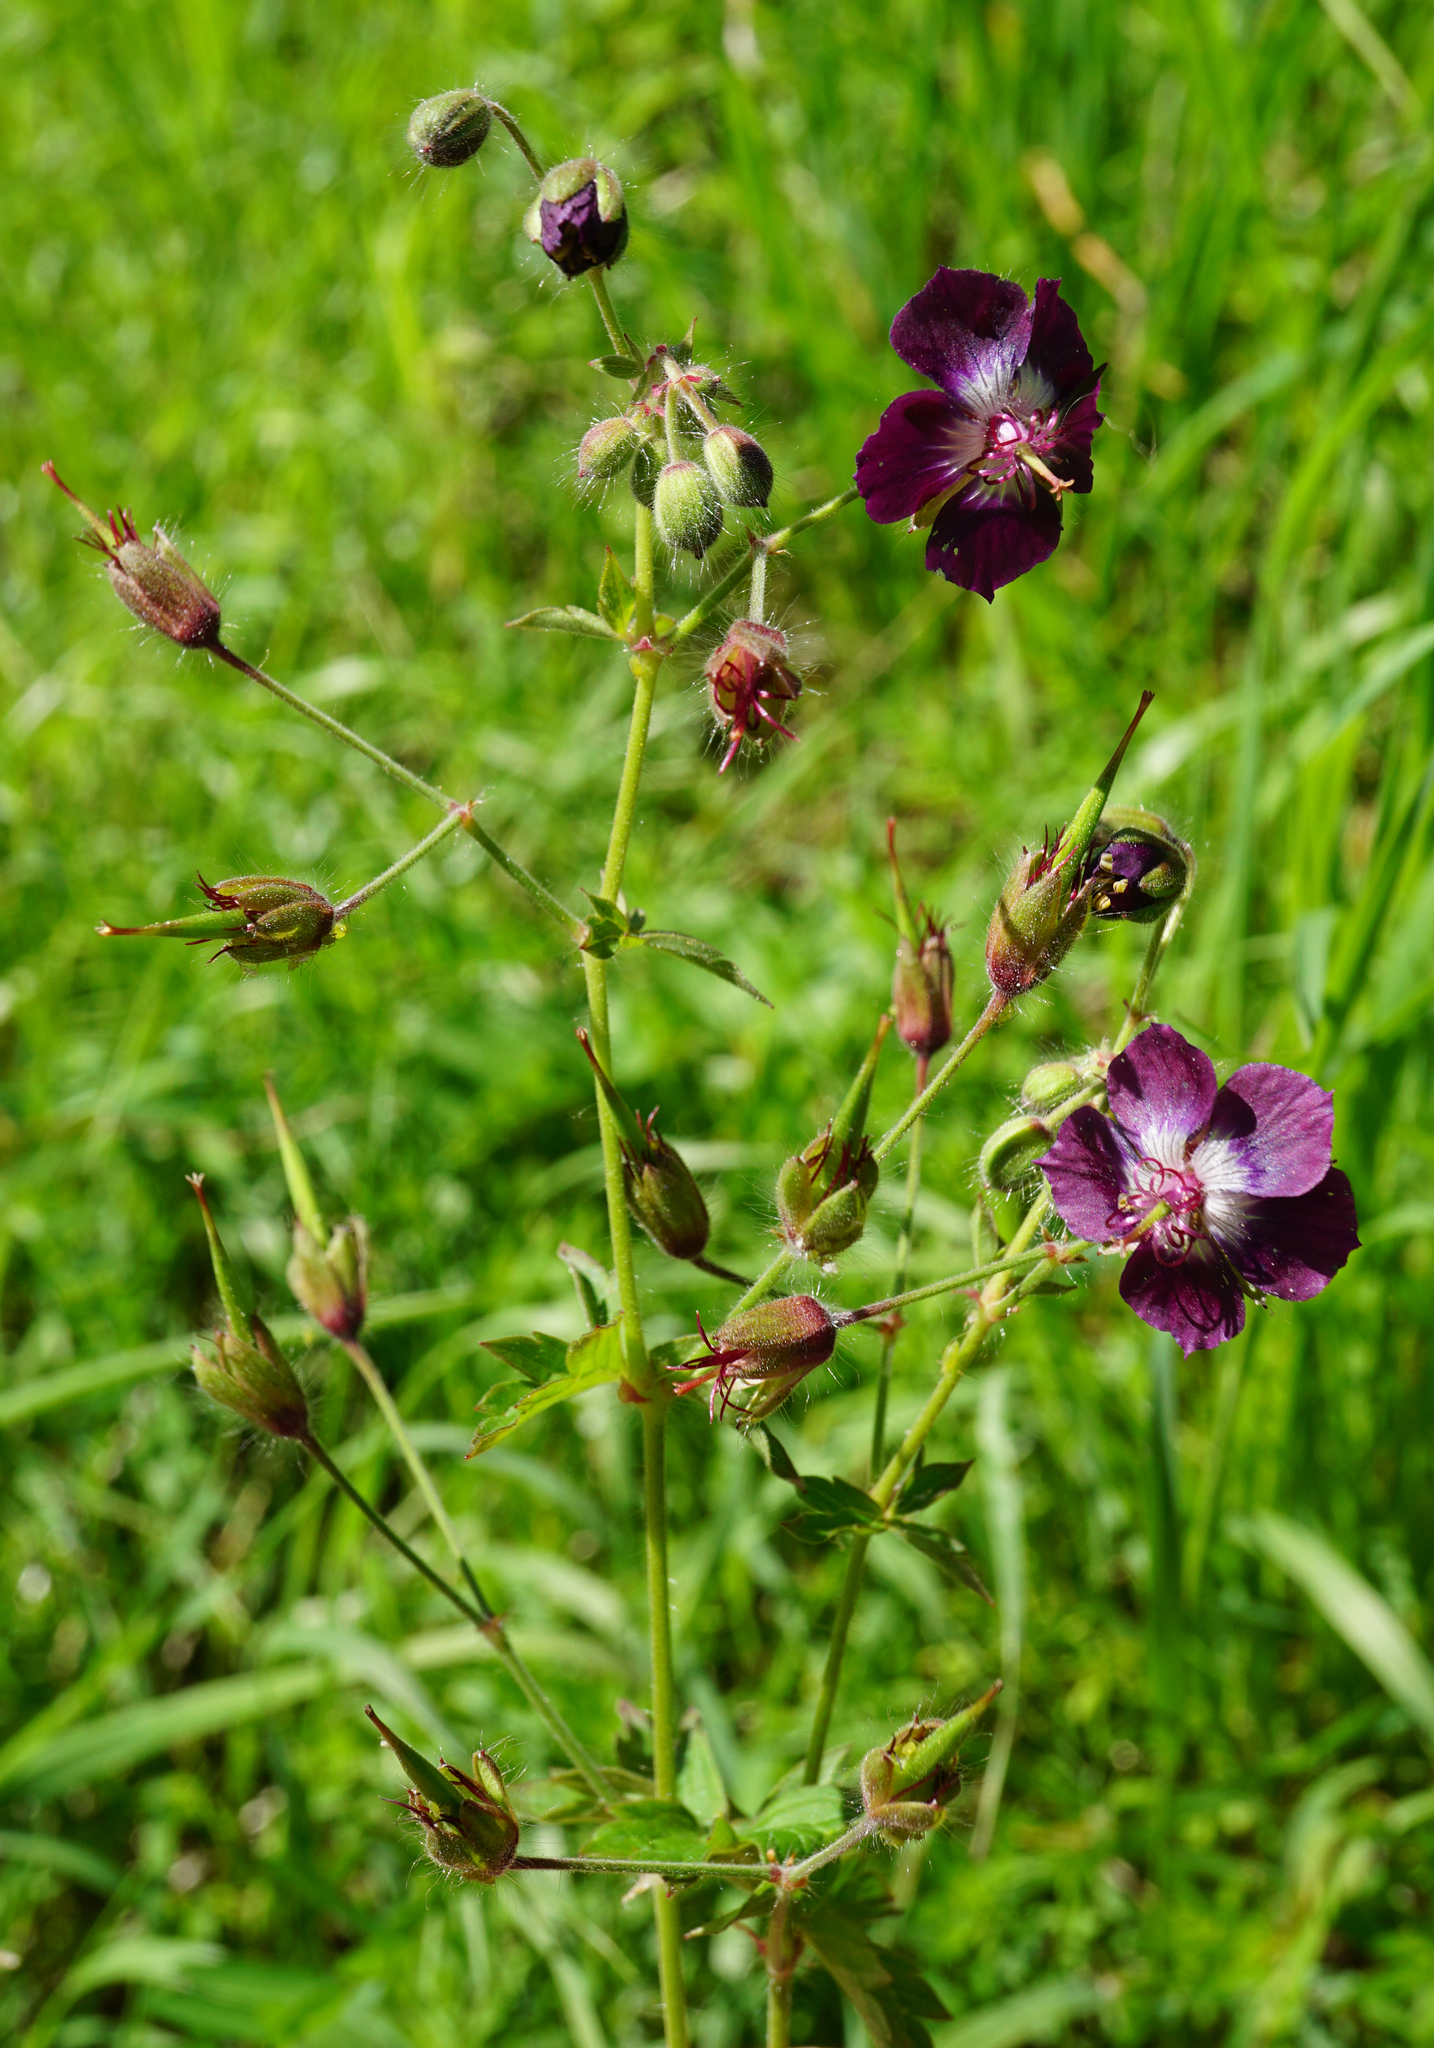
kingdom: Plantae
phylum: Tracheophyta
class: Magnoliopsida
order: Geraniales
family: Geraniaceae
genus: Geranium
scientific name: Geranium phaeum
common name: Dusky crane's-bill
